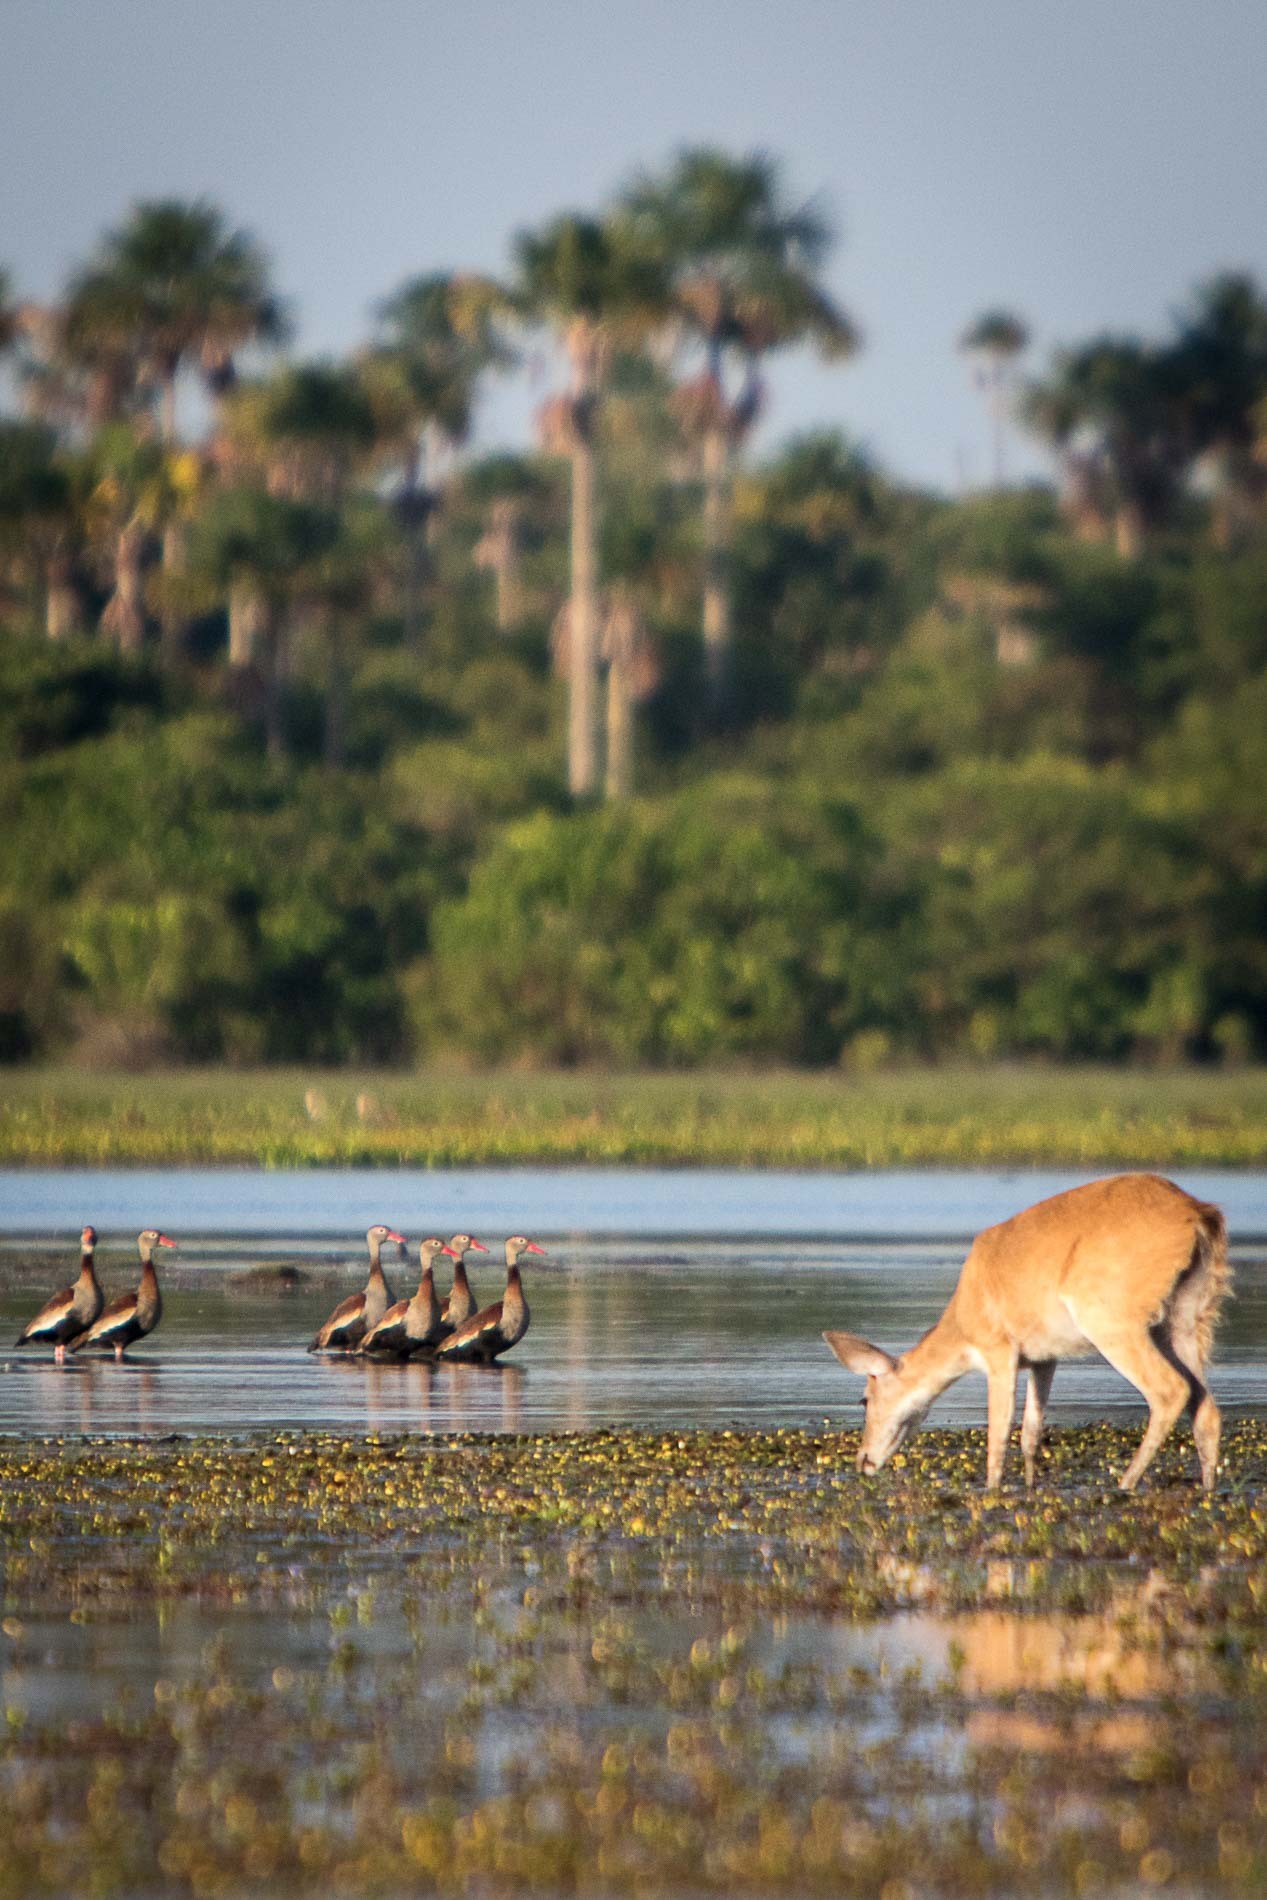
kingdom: Animalia
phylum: Chordata
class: Mammalia
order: Artiodactyla
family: Cervidae
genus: Odocoileus
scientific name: Odocoileus virginianus
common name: White-tailed deer
